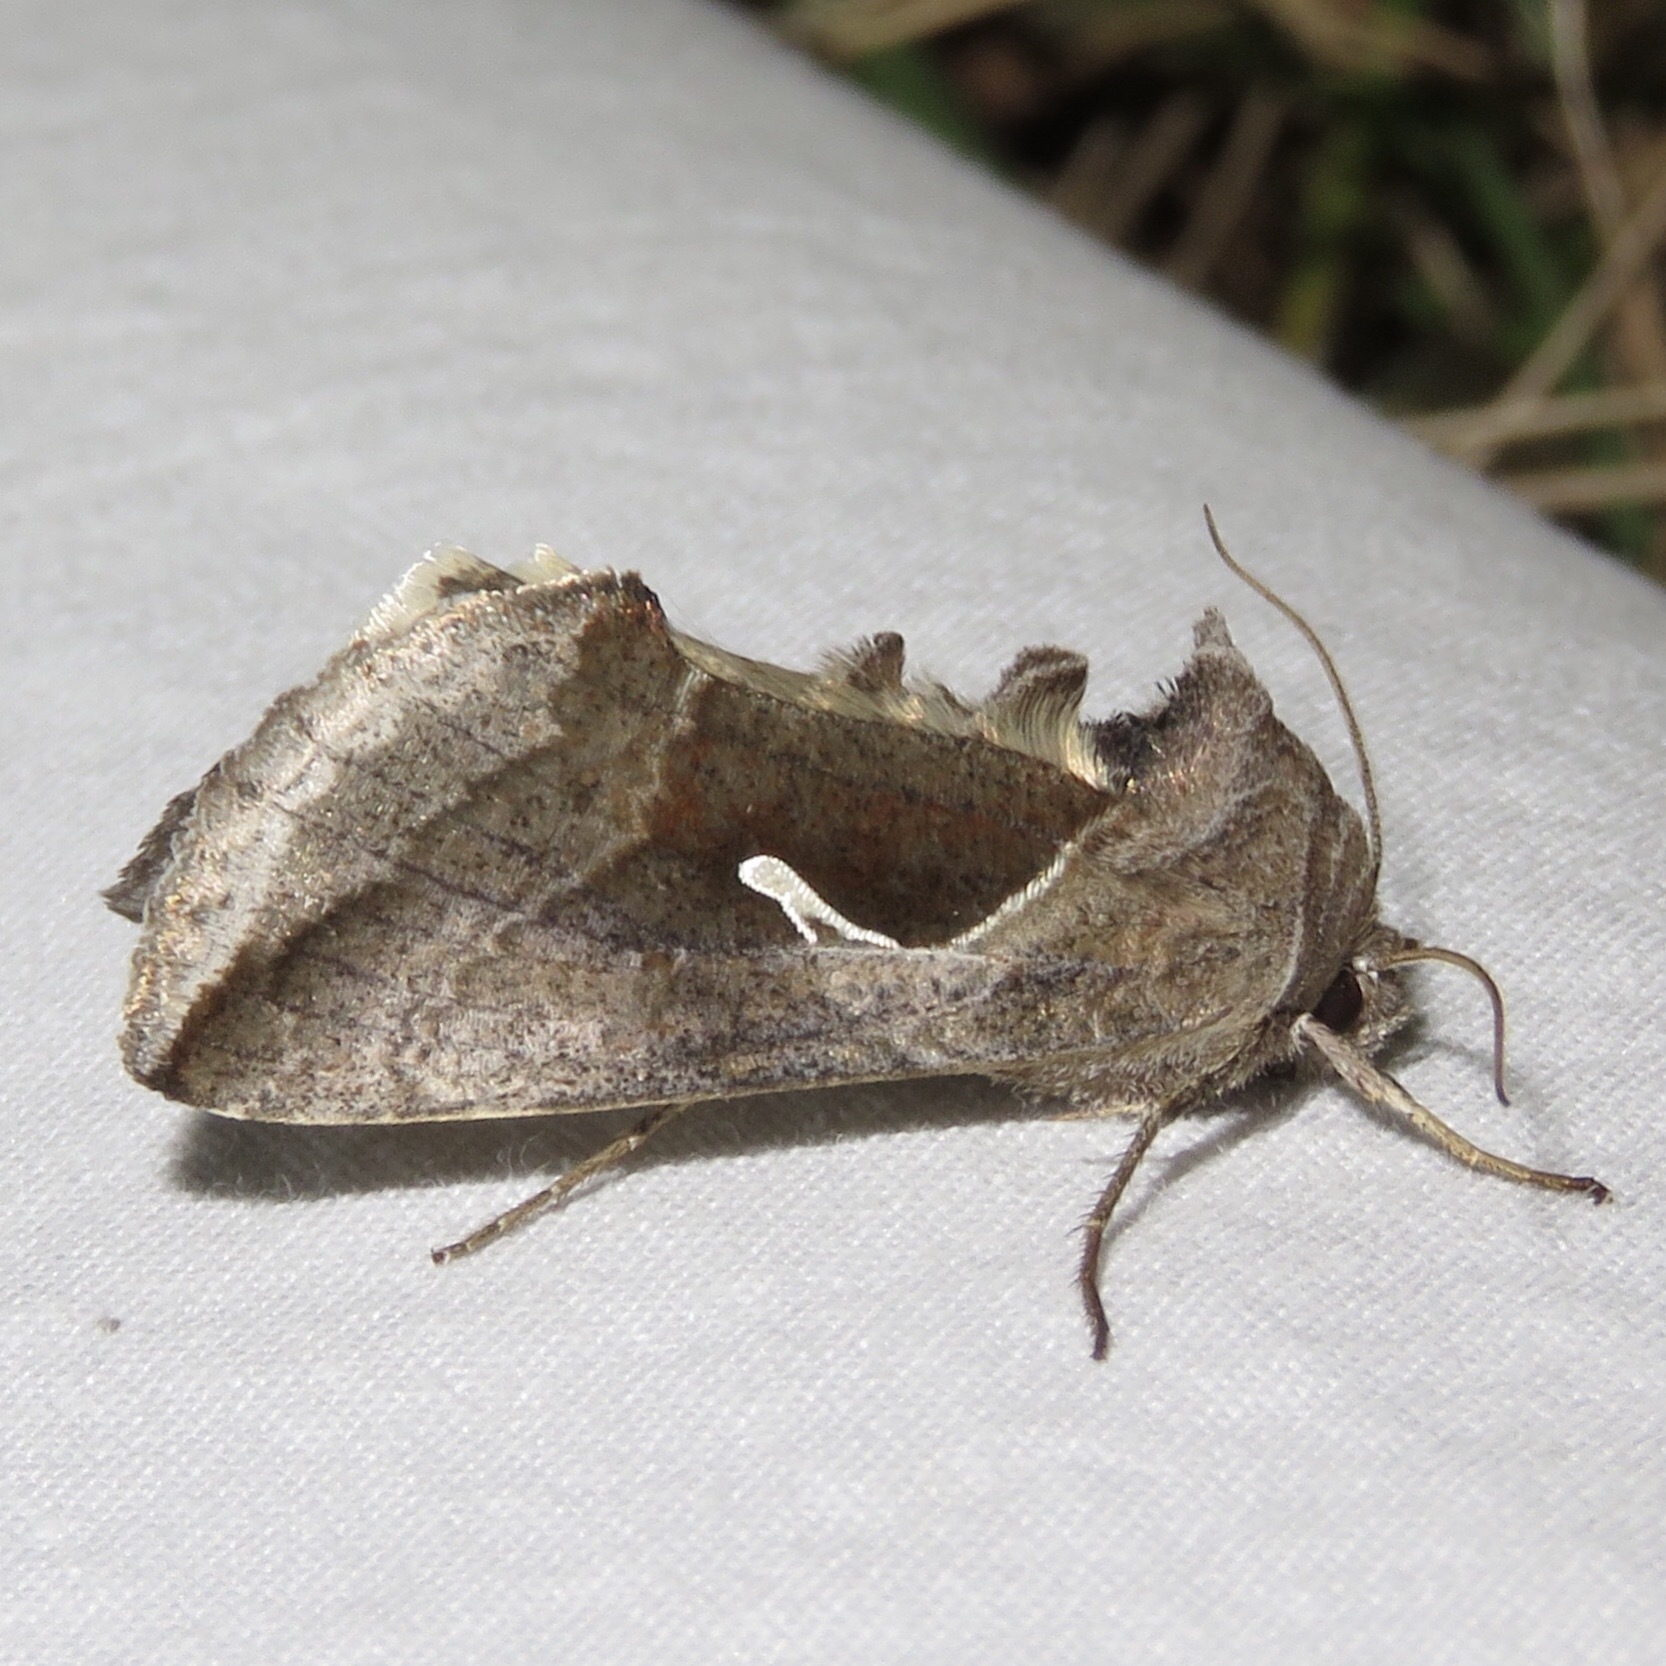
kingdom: Animalia
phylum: Arthropoda
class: Insecta
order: Lepidoptera
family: Noctuidae
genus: Anagrapha
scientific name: Anagrapha falcifera
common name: Celery looper
